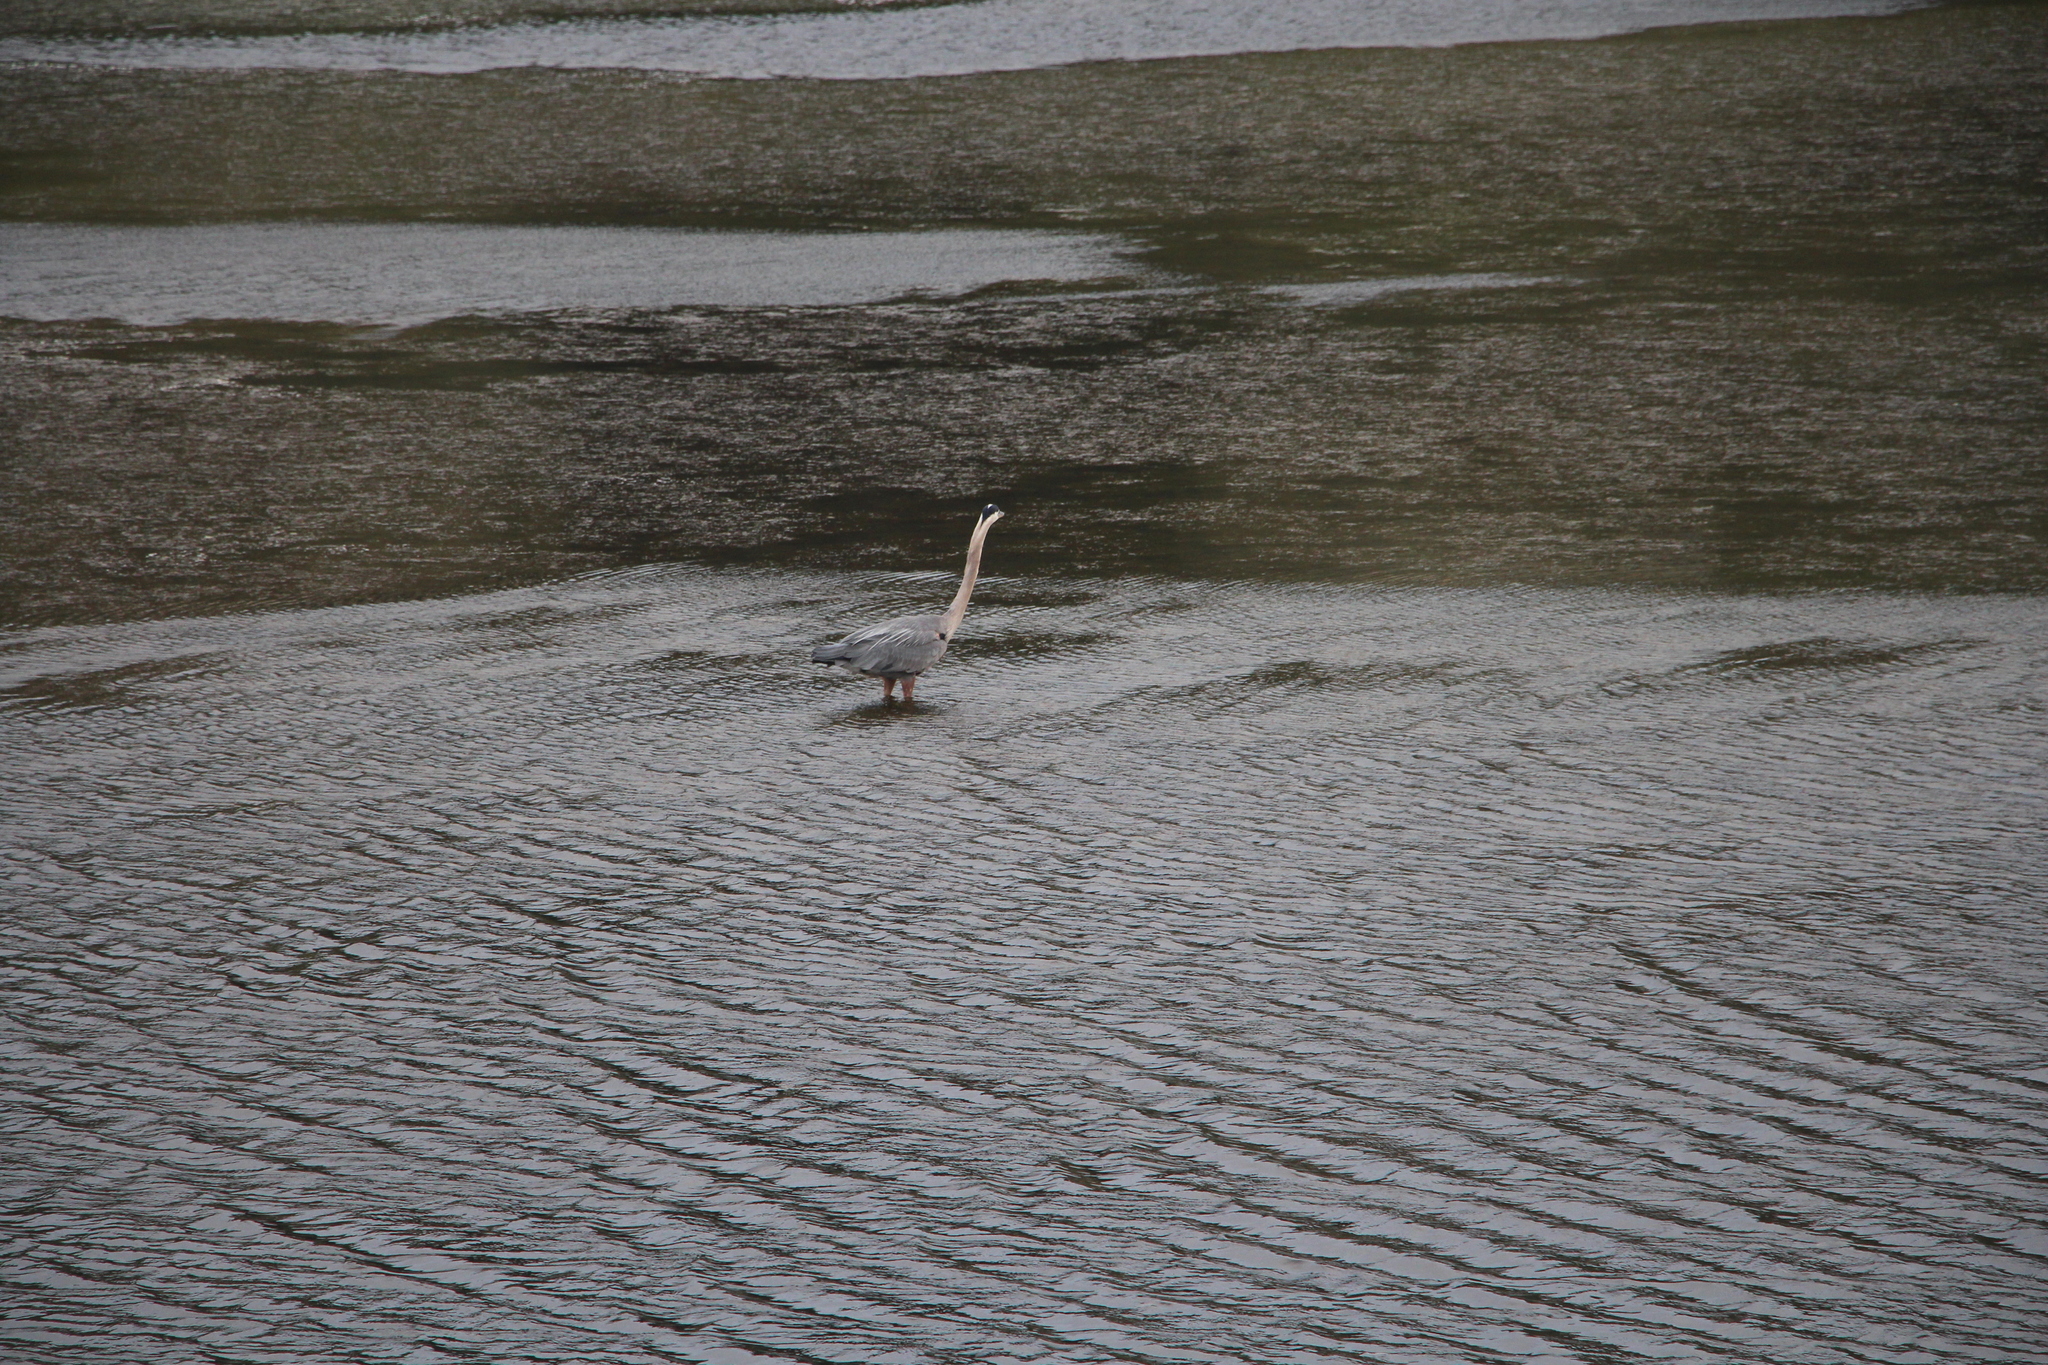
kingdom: Animalia
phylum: Chordata
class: Aves
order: Pelecaniformes
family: Ardeidae
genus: Ardea
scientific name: Ardea herodias
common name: Great blue heron
